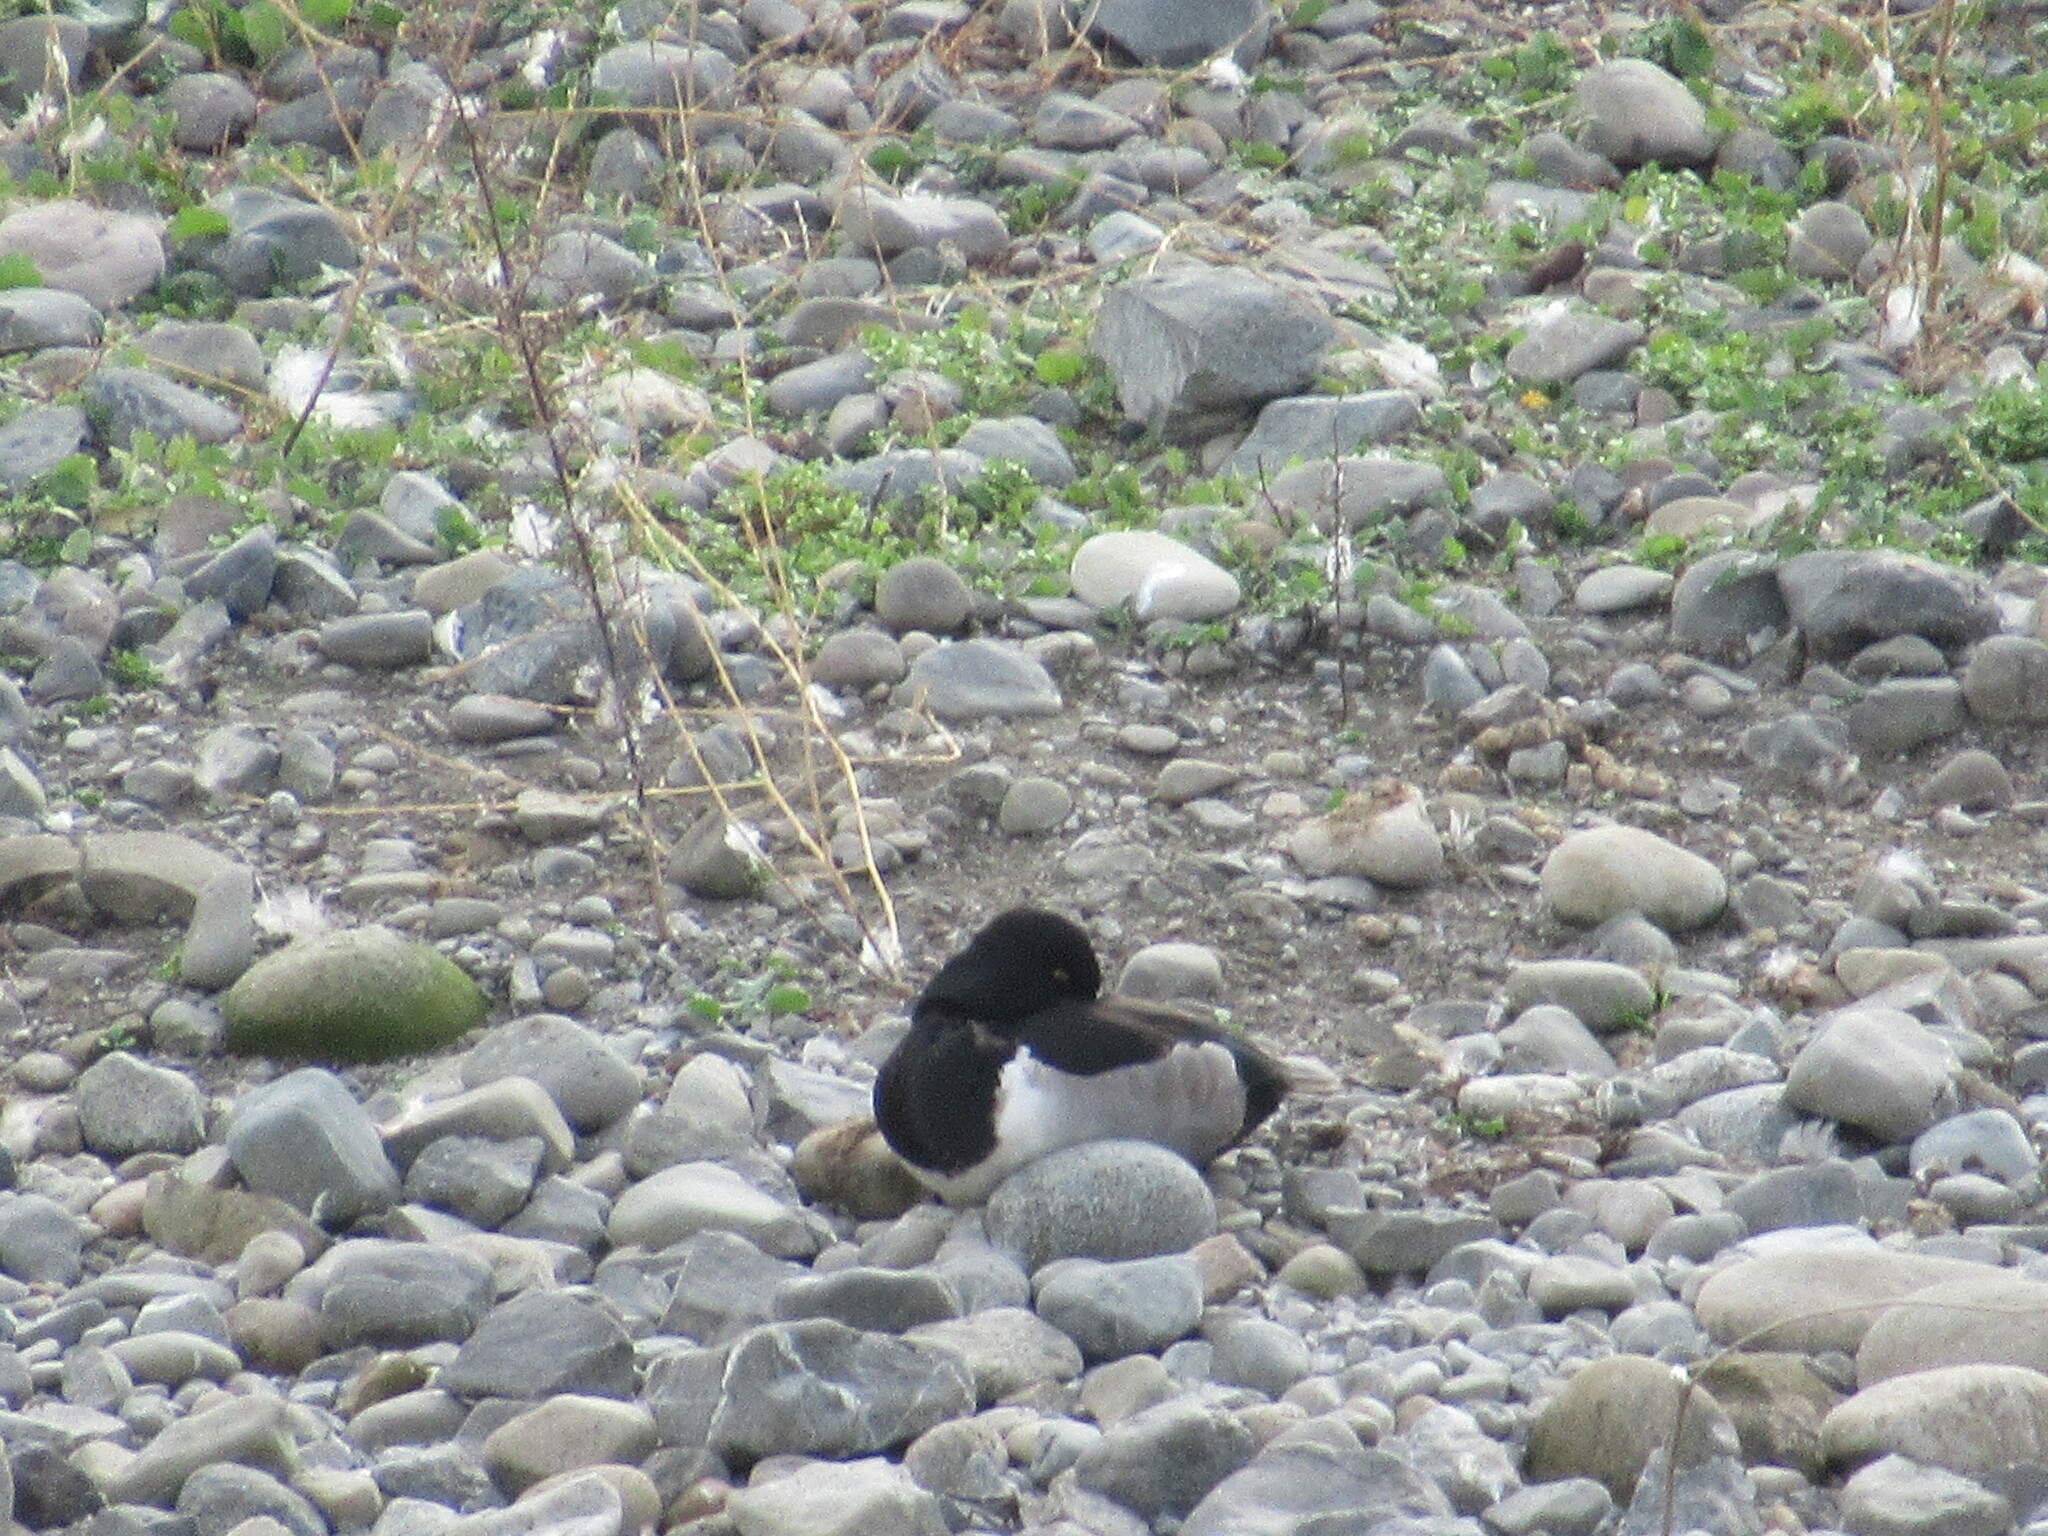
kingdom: Animalia
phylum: Chordata
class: Aves
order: Anseriformes
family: Anatidae
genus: Aythya
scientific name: Aythya collaris
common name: Ring-necked duck
